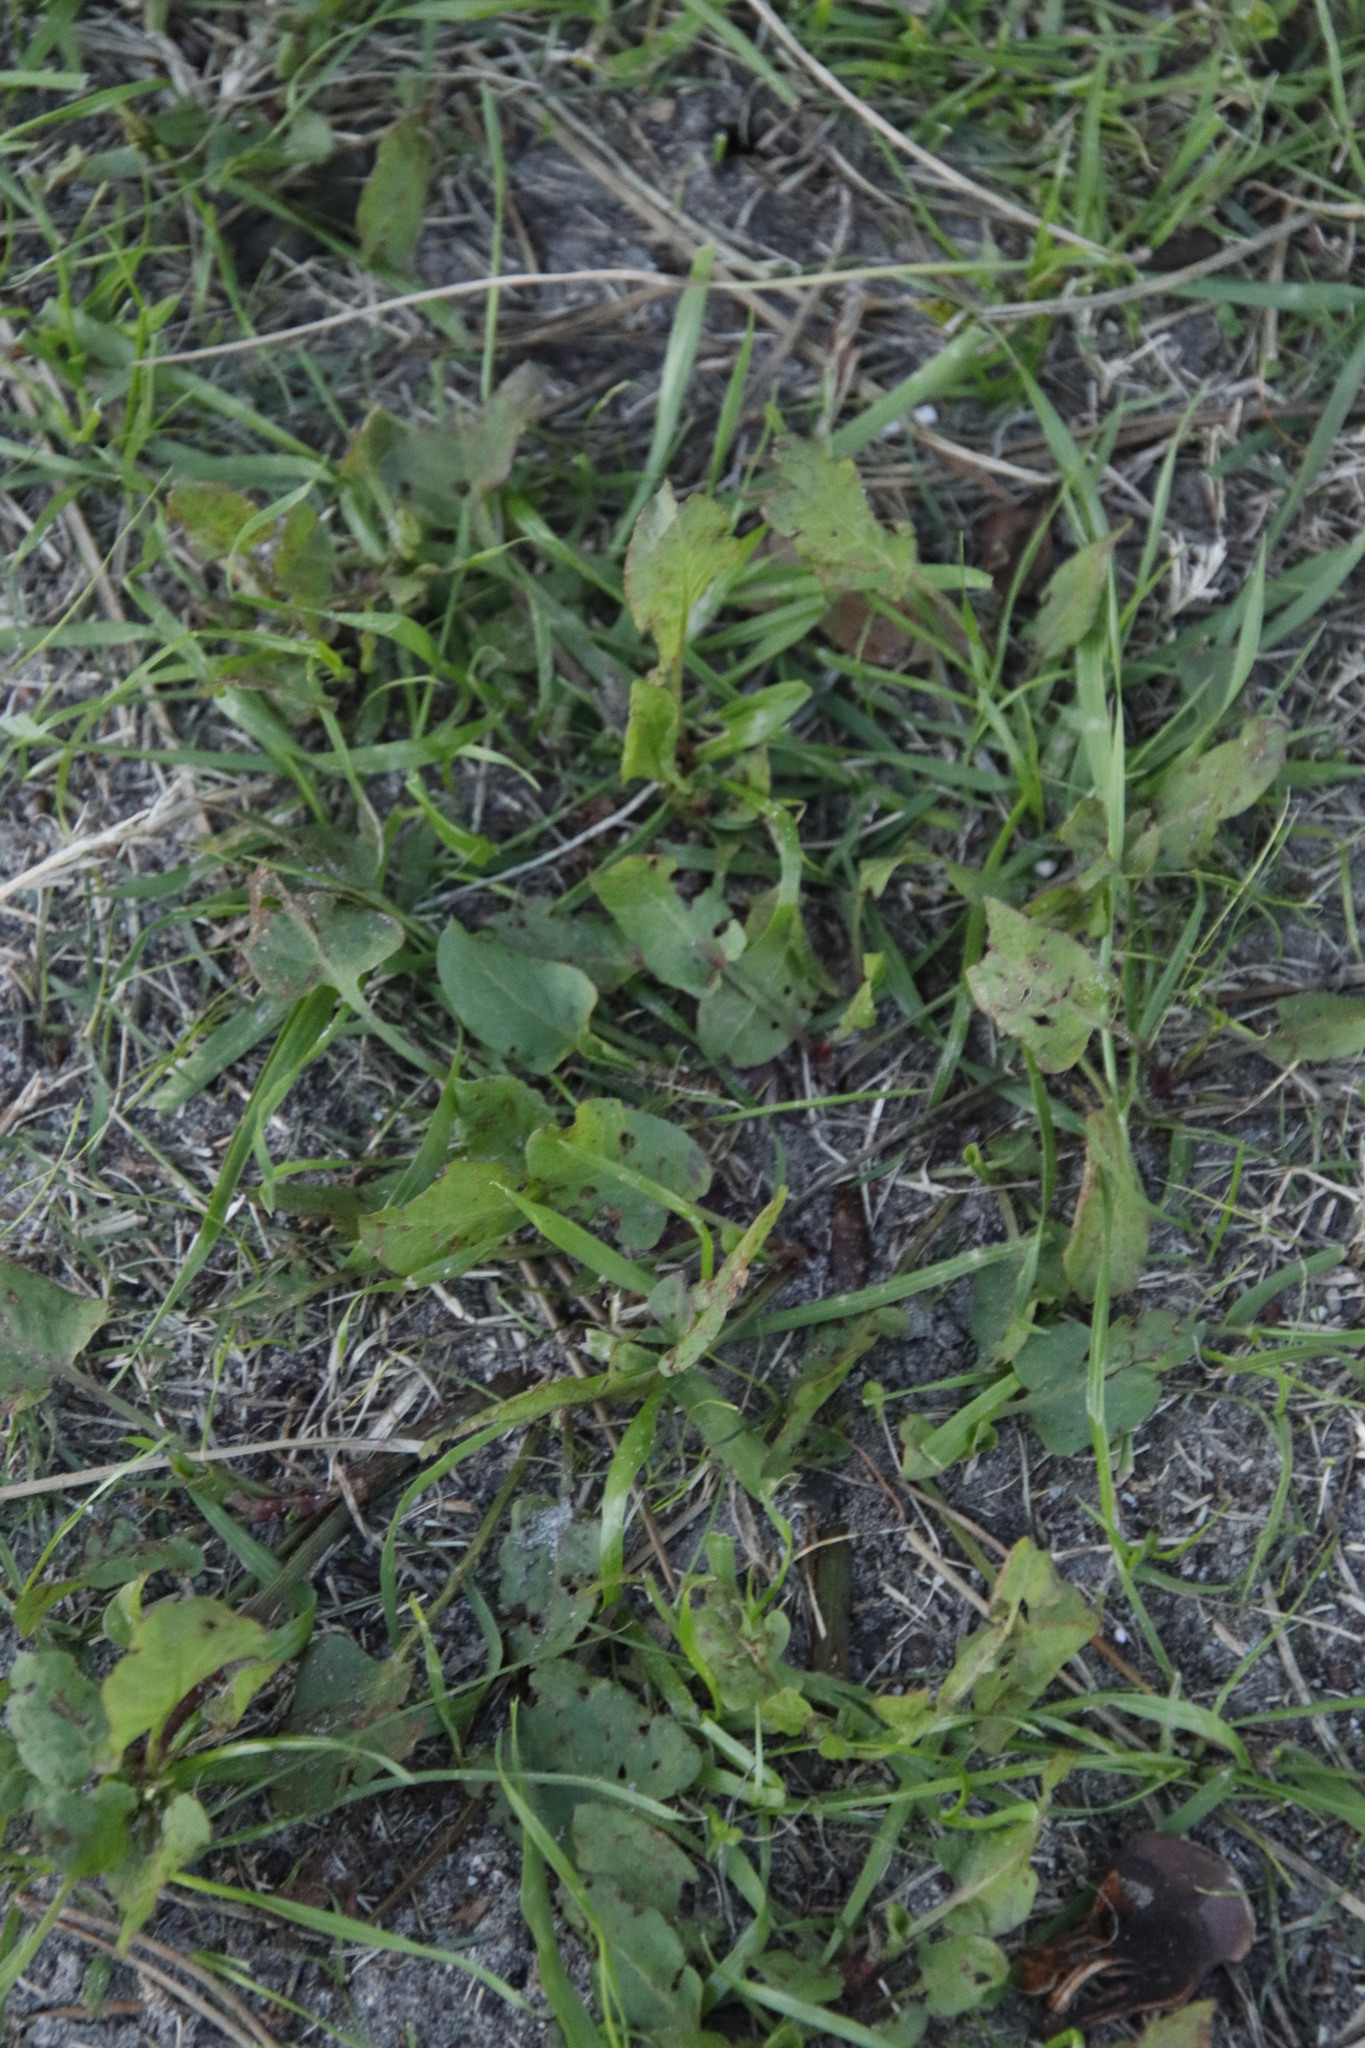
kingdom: Plantae
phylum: Tracheophyta
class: Magnoliopsida
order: Caryophyllales
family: Polygonaceae
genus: Rumex
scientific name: Rumex hypogaeus
